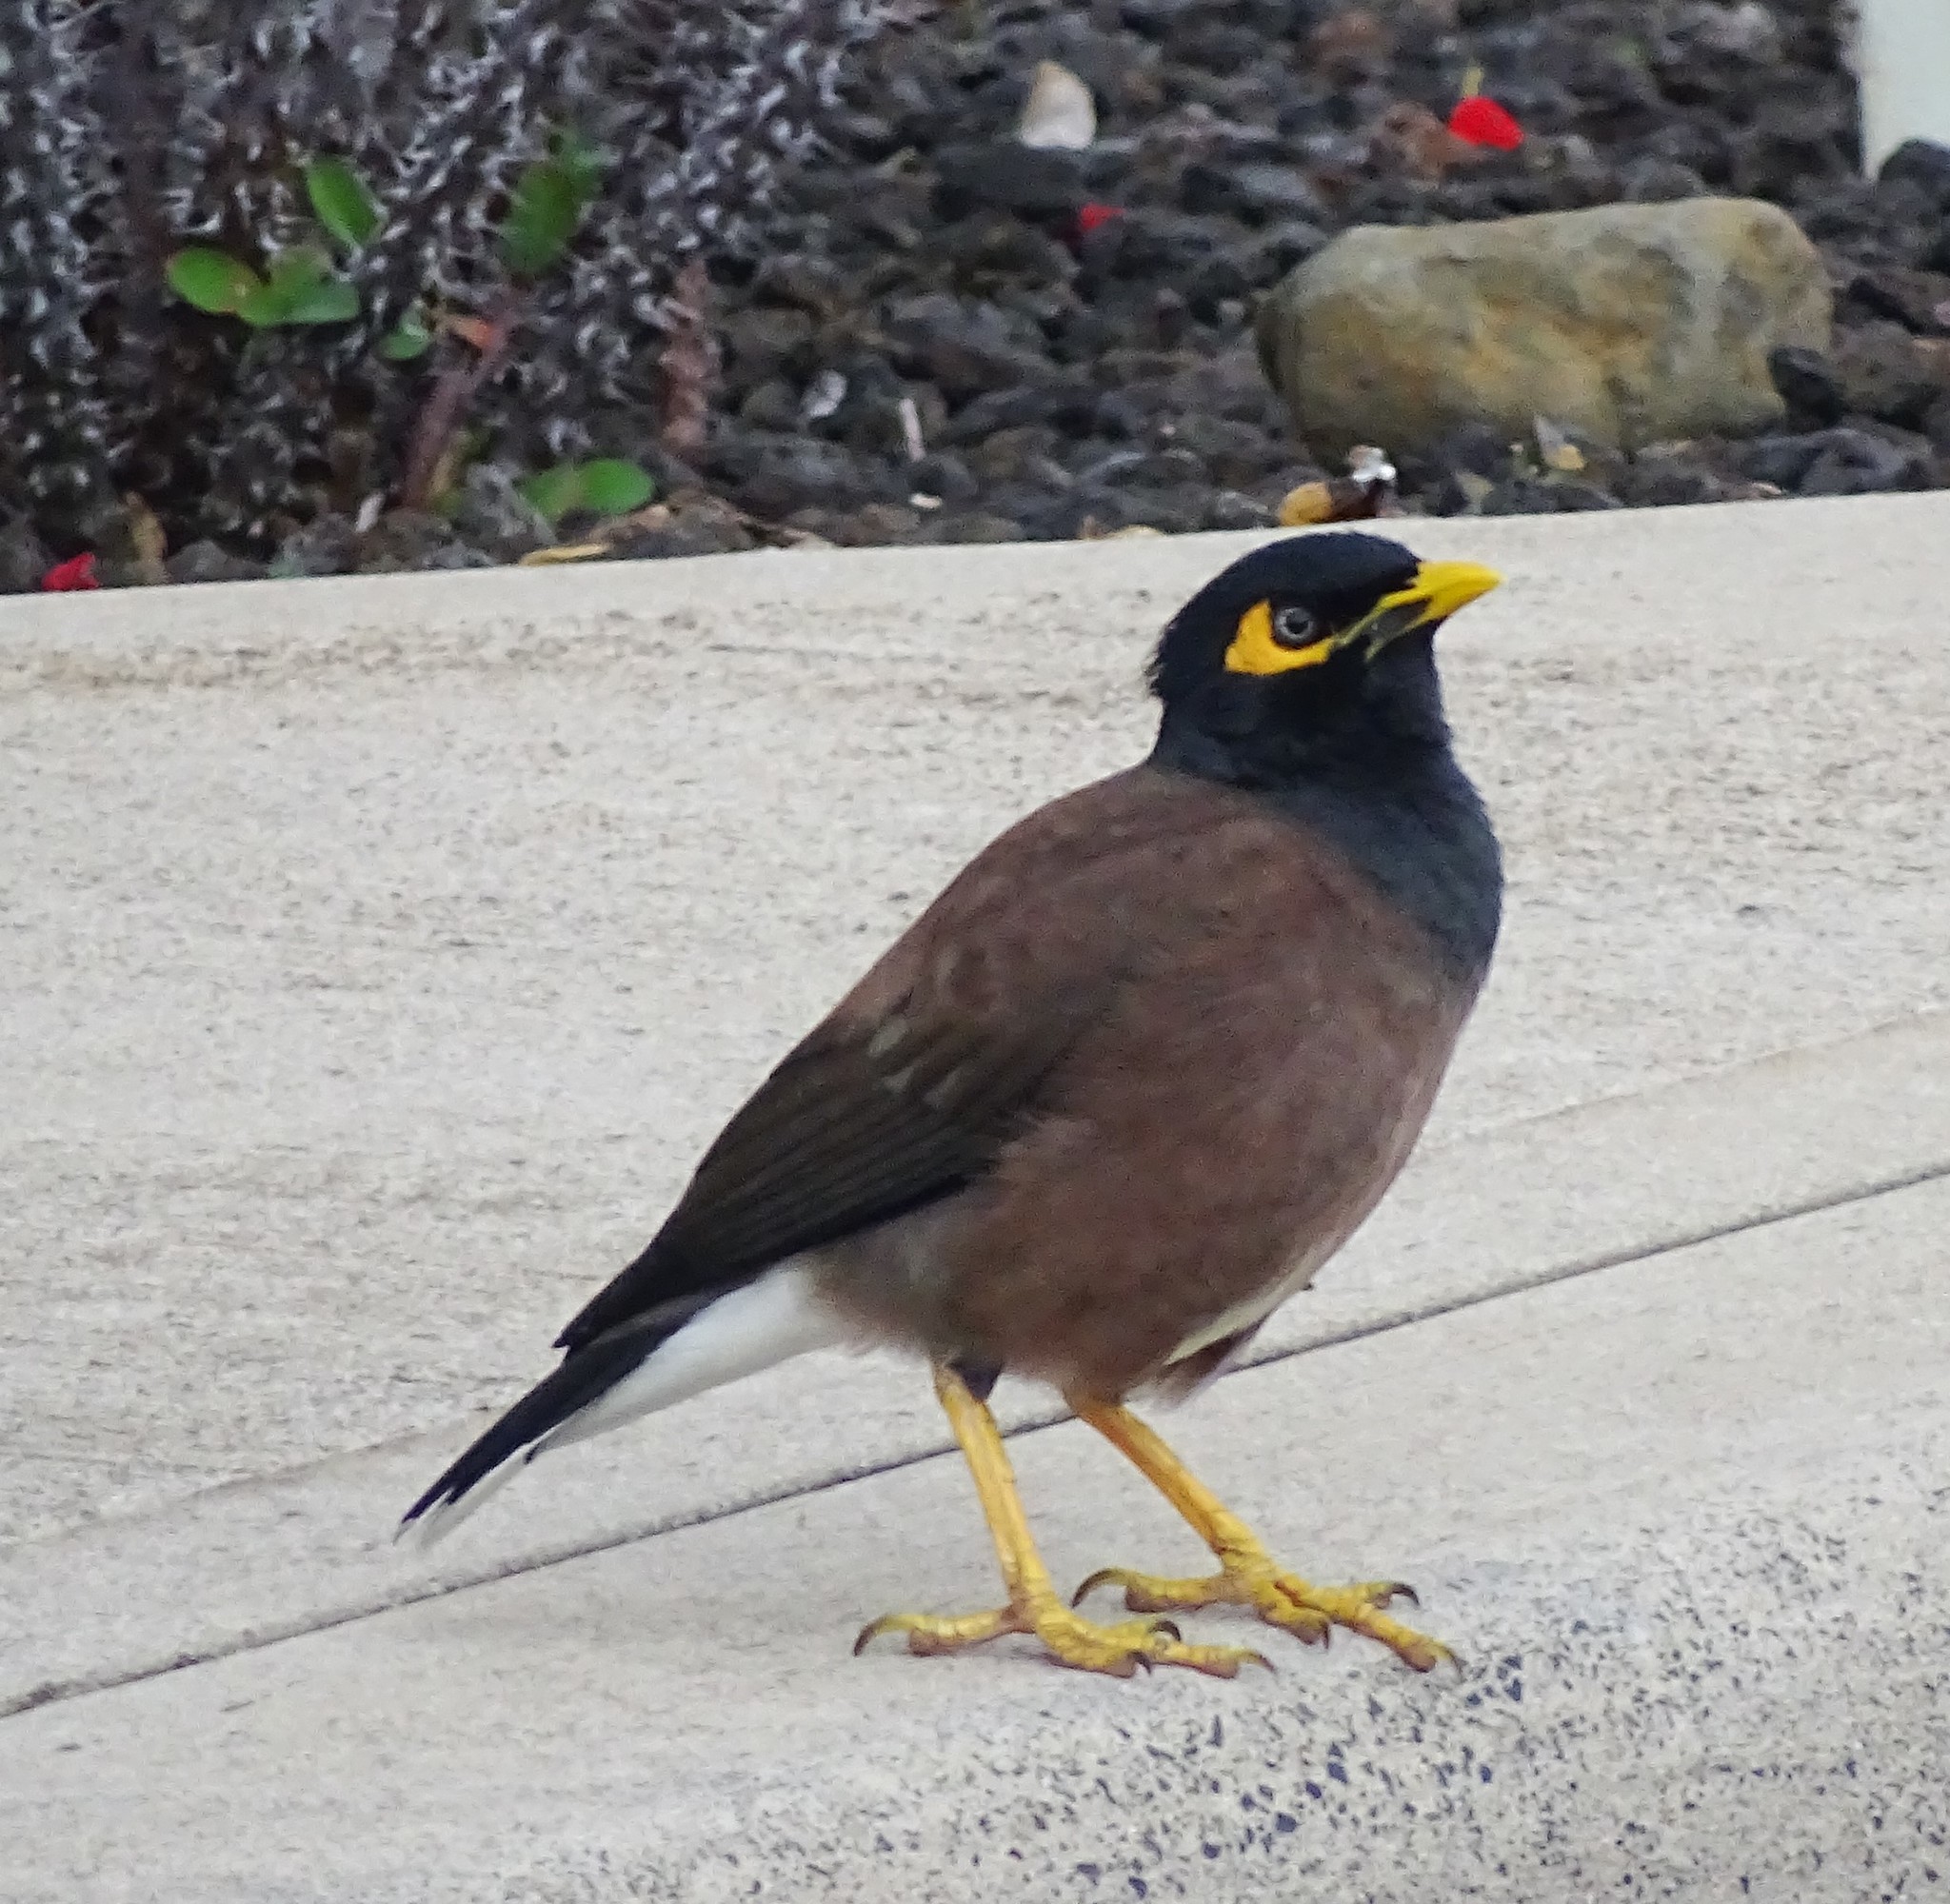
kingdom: Animalia
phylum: Chordata
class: Aves
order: Passeriformes
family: Sturnidae
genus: Acridotheres
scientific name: Acridotheres tristis
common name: Common myna
